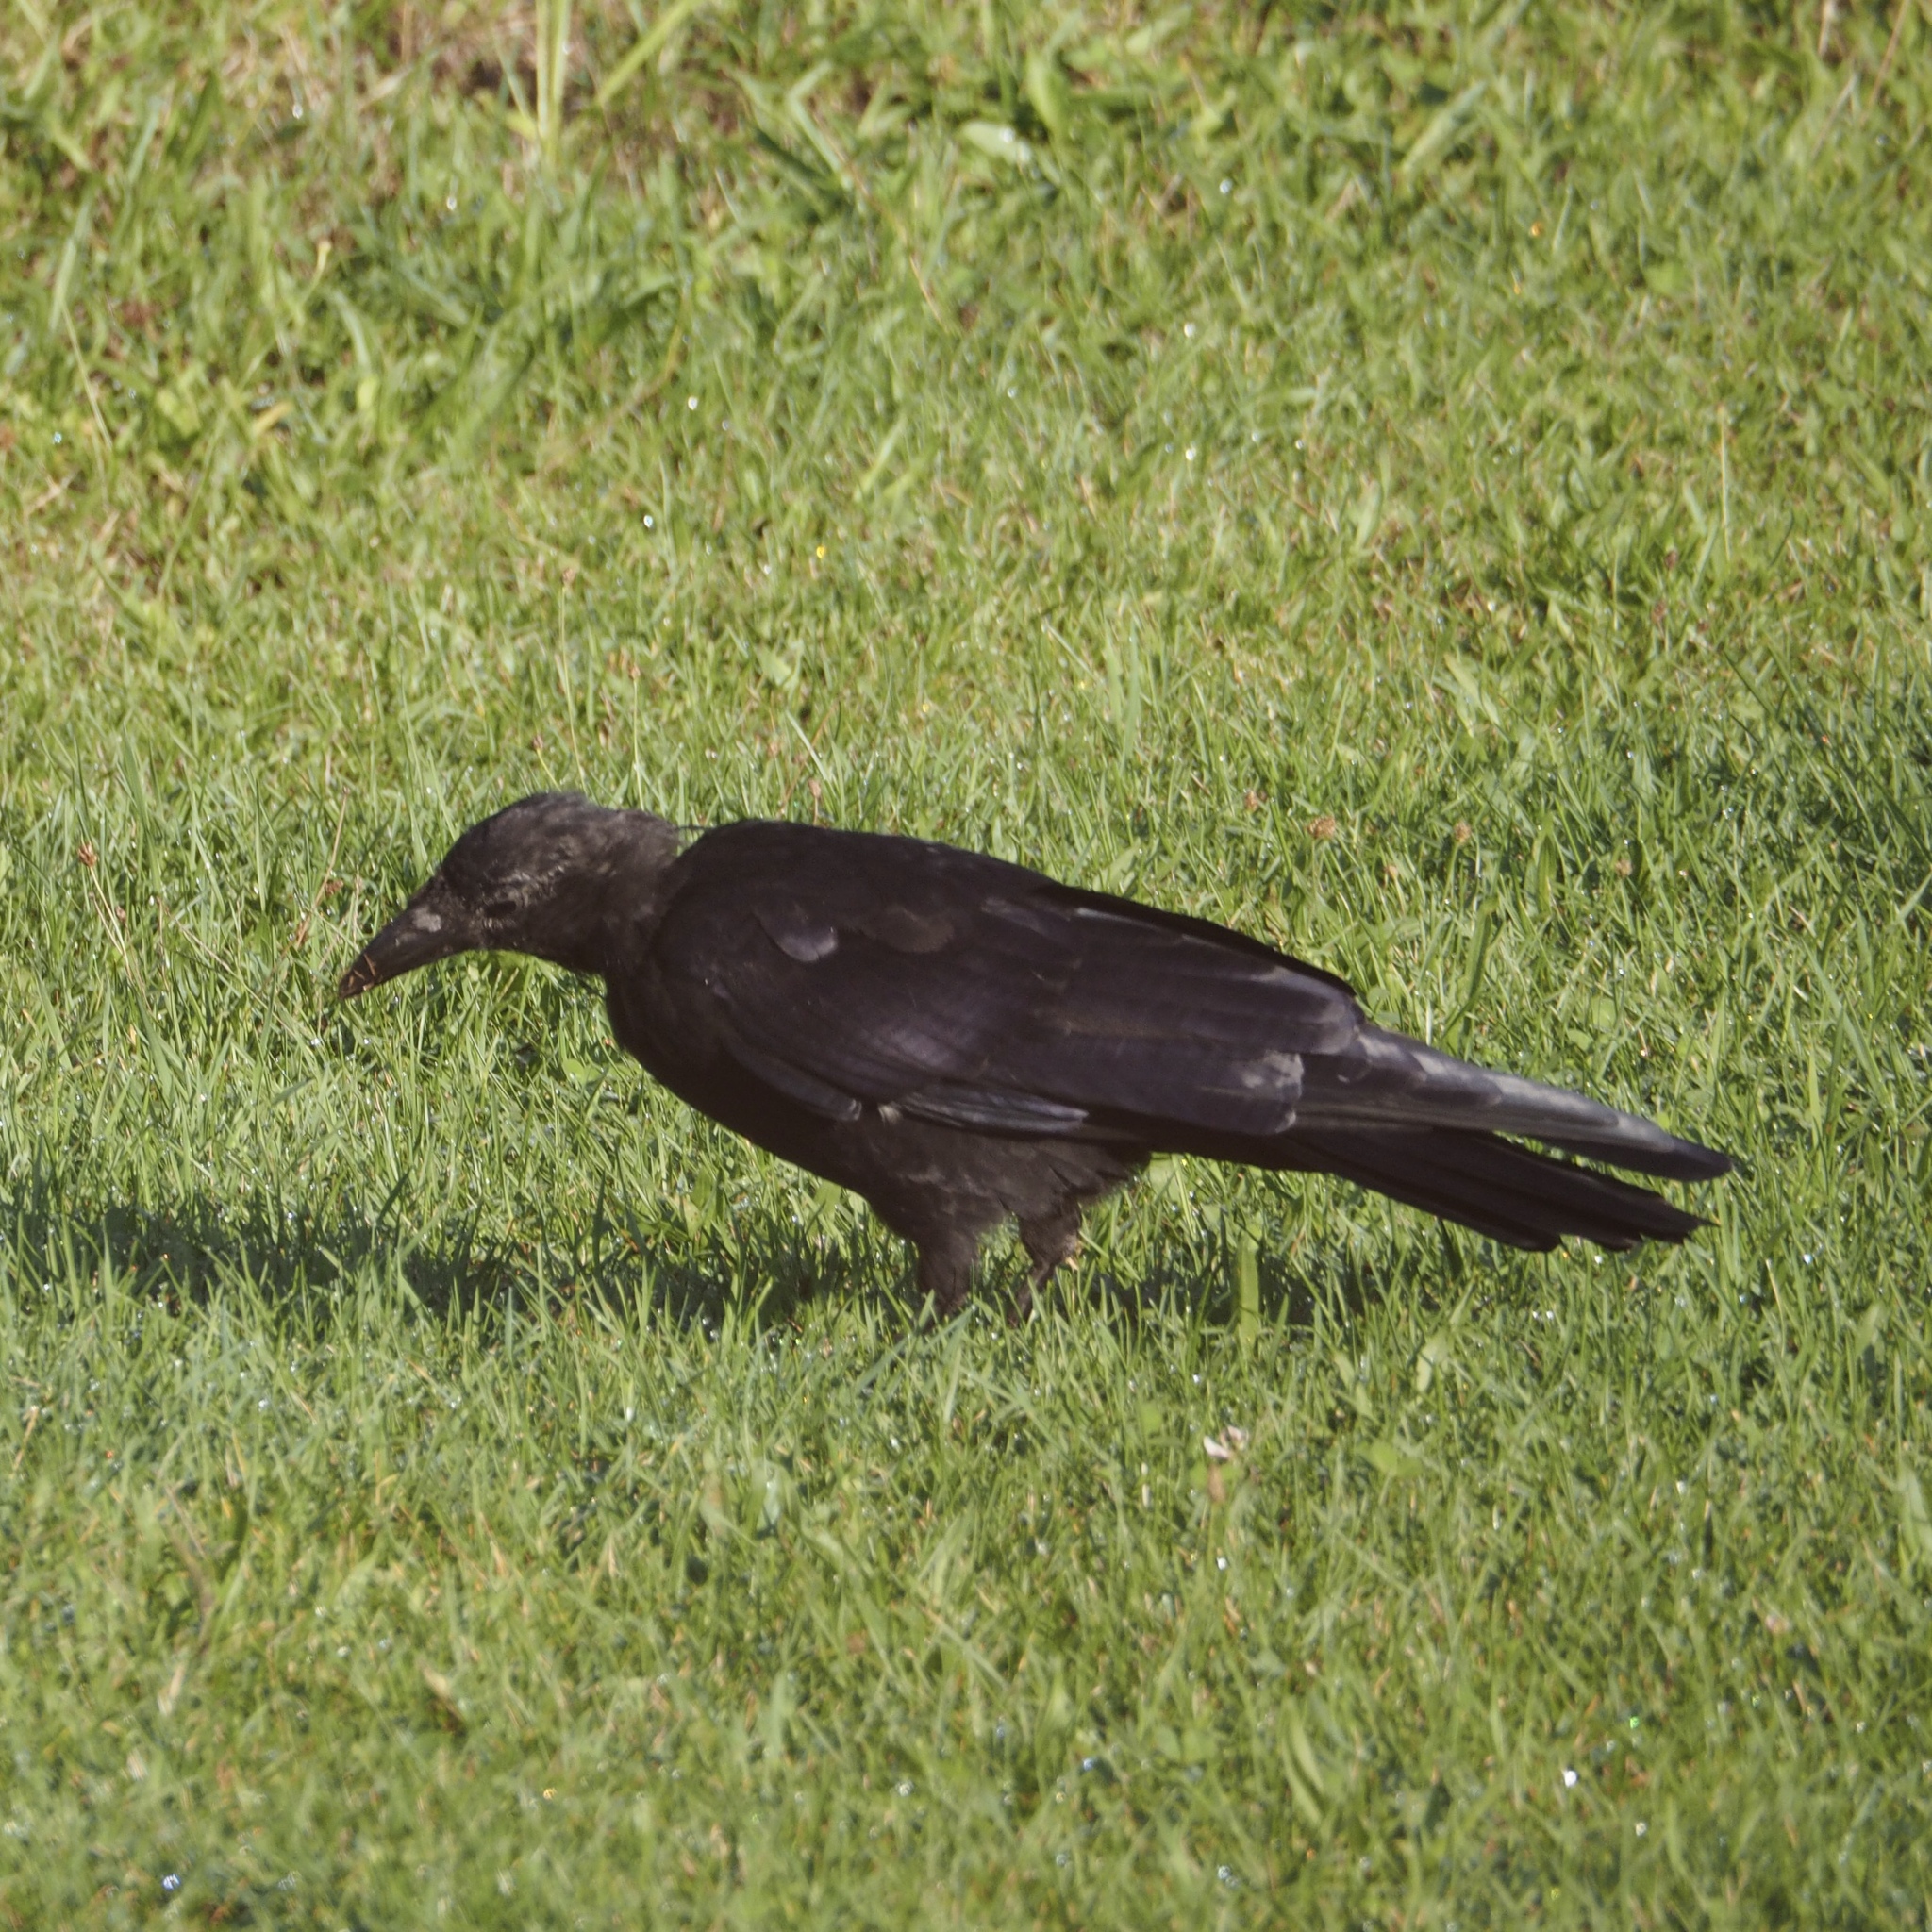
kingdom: Animalia
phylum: Chordata
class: Aves
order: Passeriformes
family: Corvidae
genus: Corvus
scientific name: Corvus corone
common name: Carrion crow
